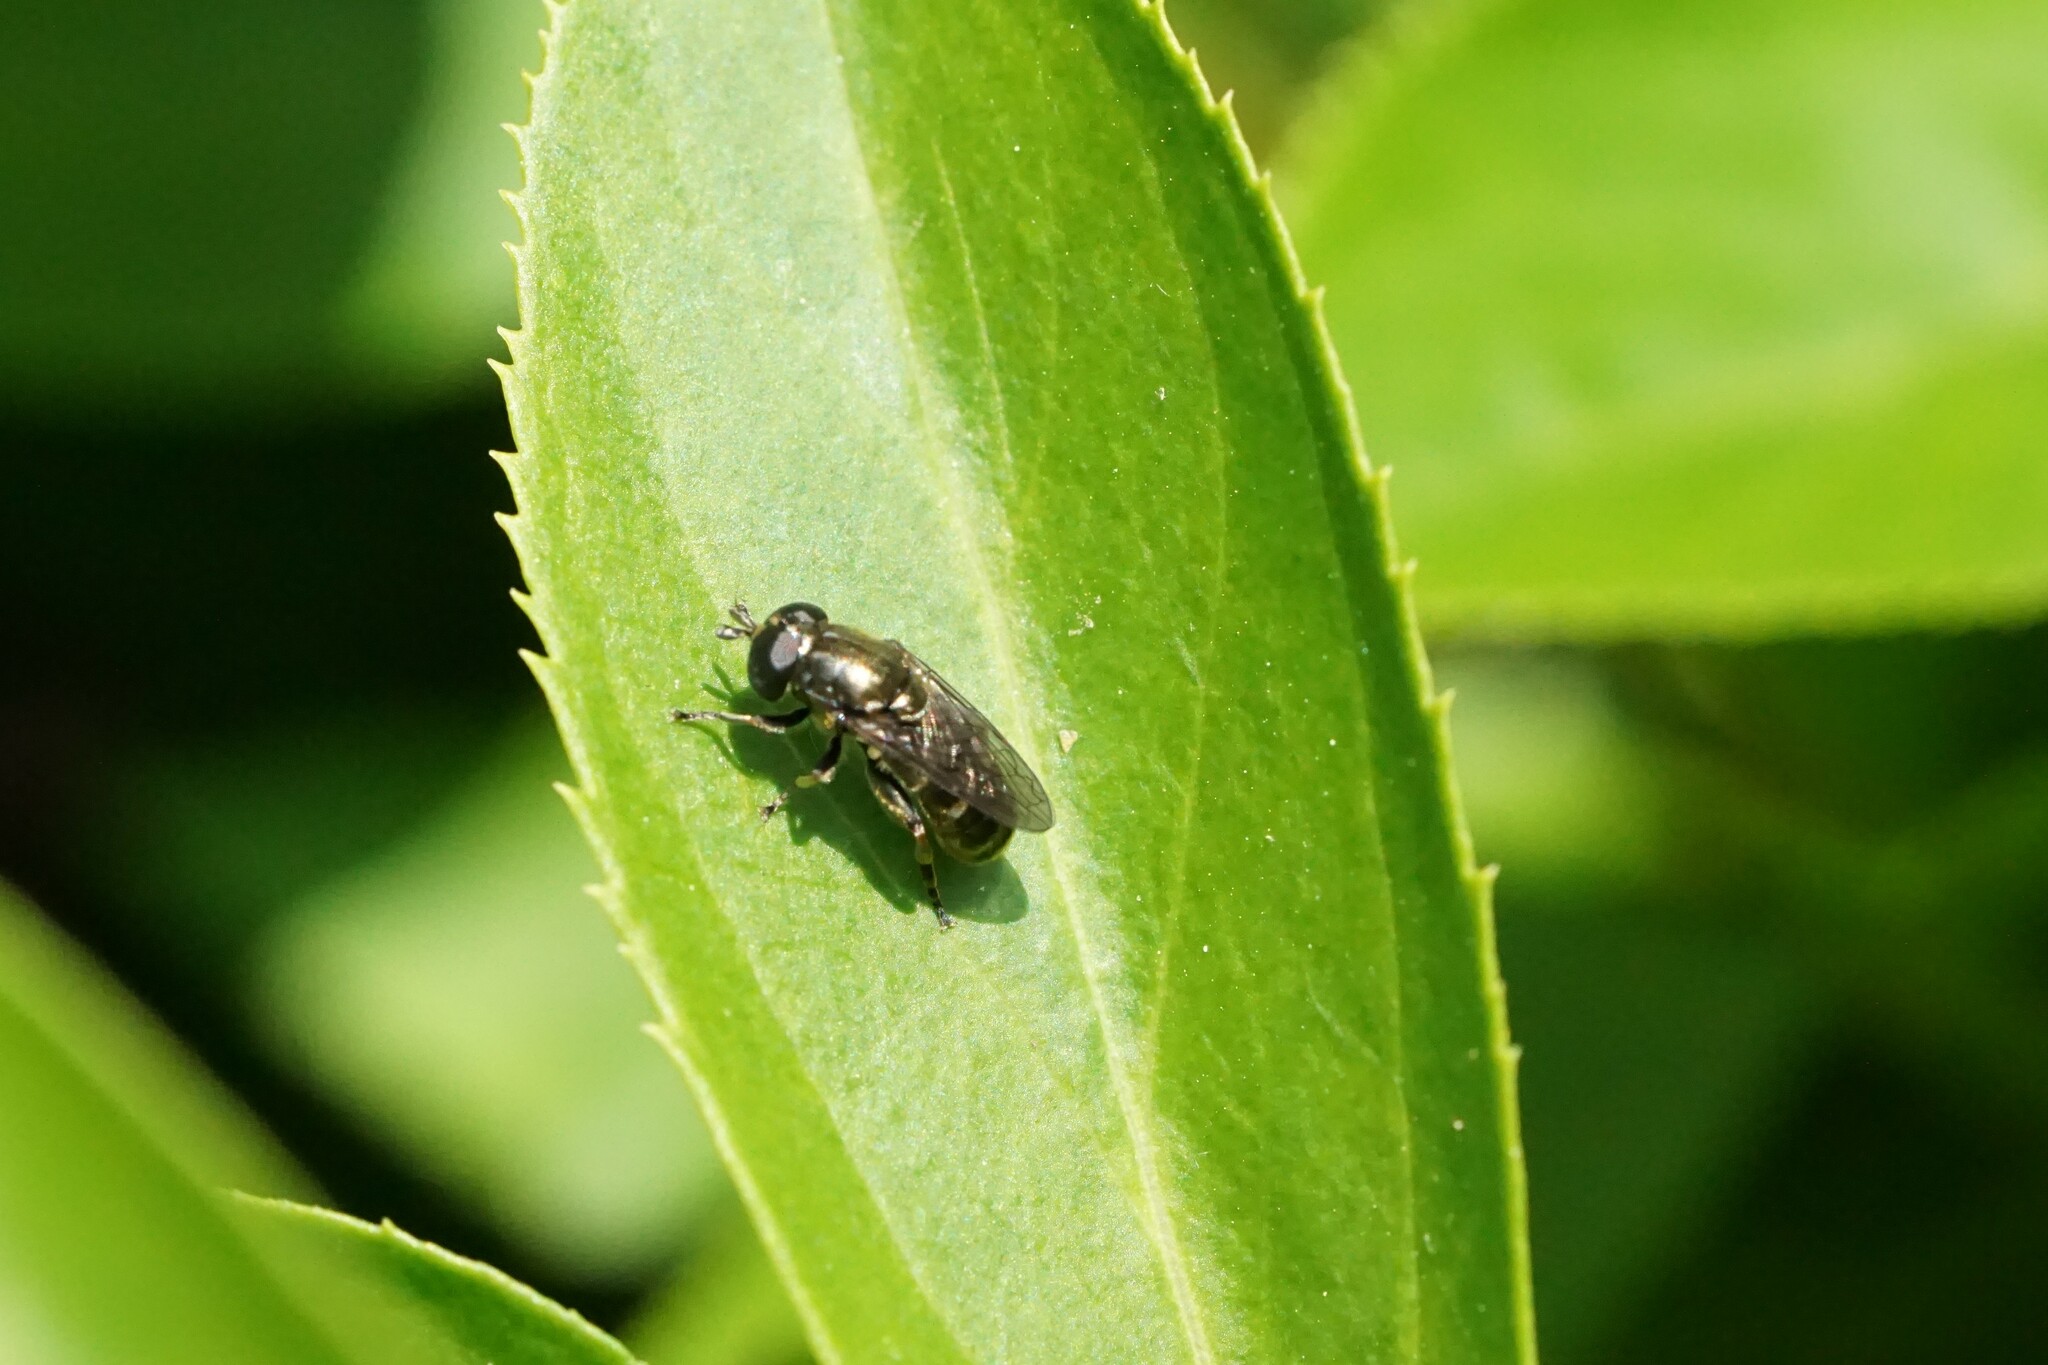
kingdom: Animalia
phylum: Arthropoda
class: Insecta
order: Diptera
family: Syrphidae
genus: Eumerus
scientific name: Eumerus
